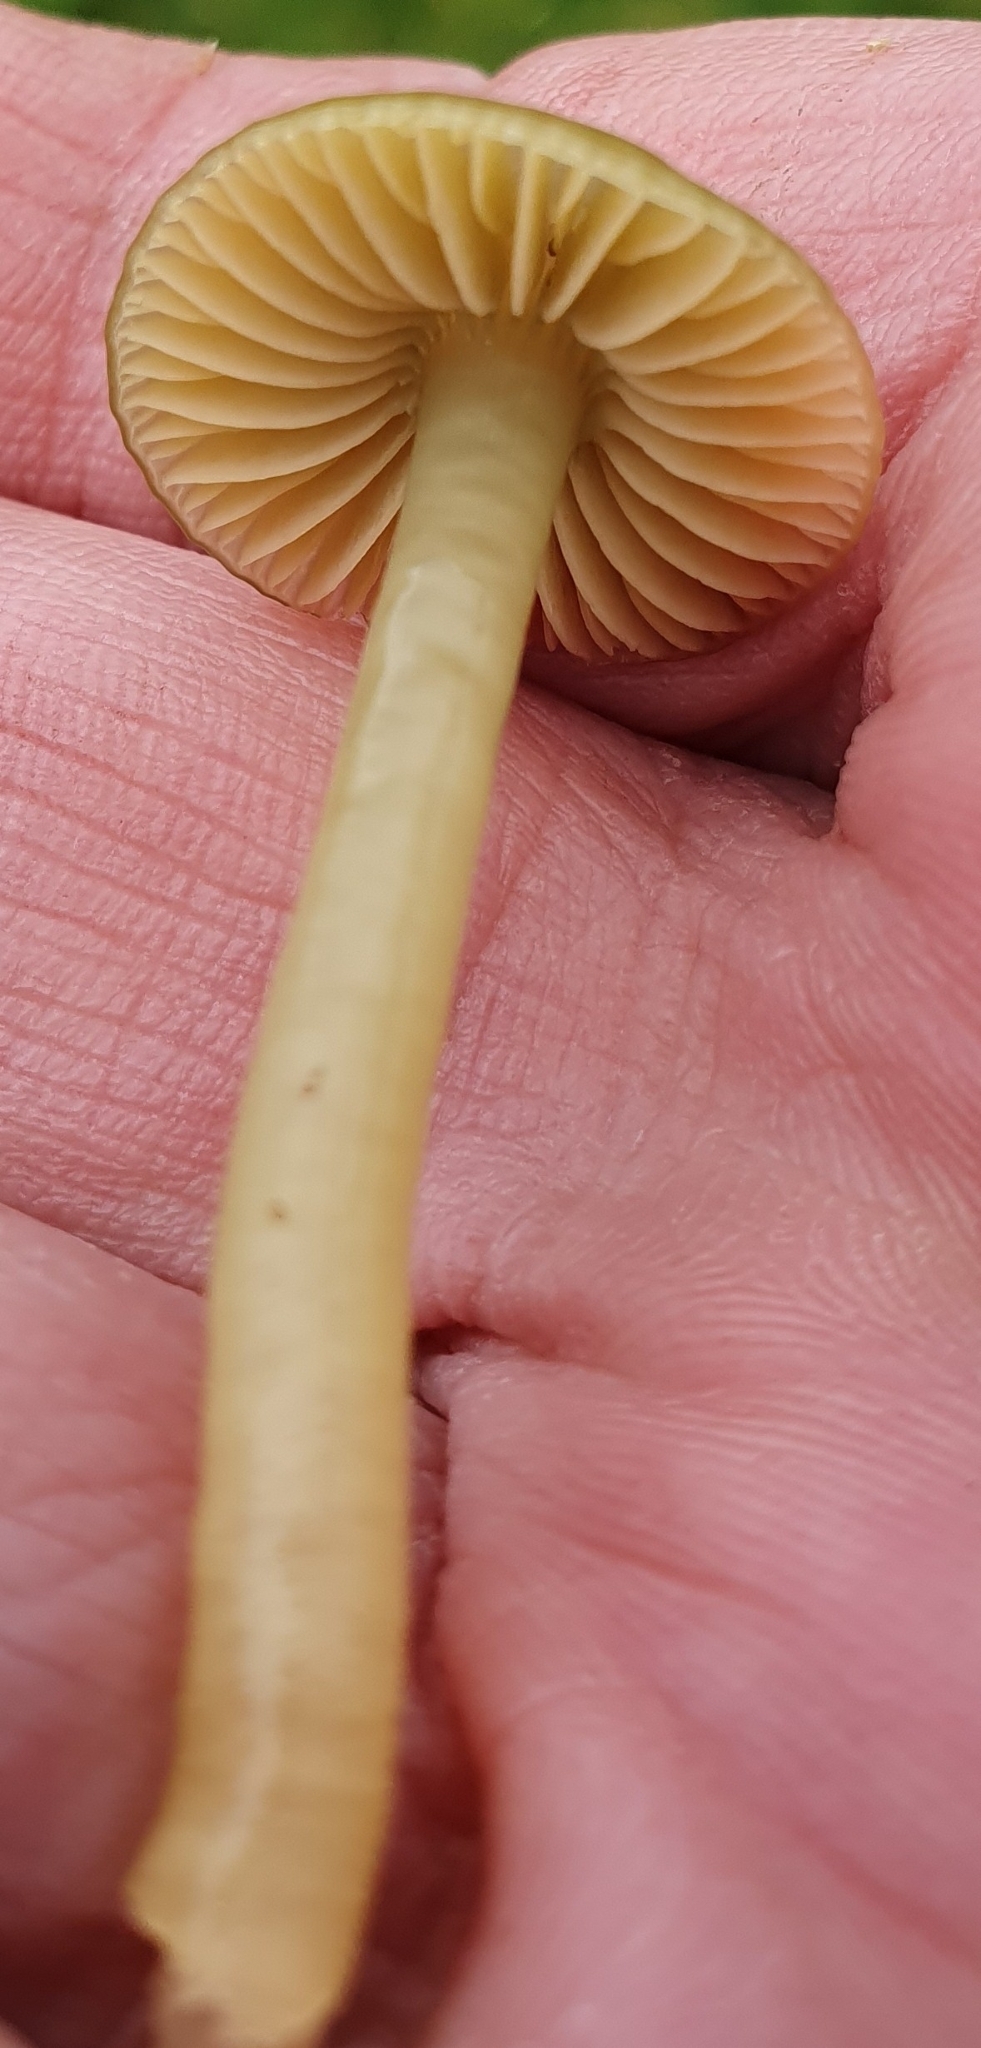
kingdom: Fungi
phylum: Basidiomycota
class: Agaricomycetes
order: Agaricales
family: Hygrophoraceae
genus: Gliophorus
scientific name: Gliophorus psittacinus
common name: Parrot wax-cap
